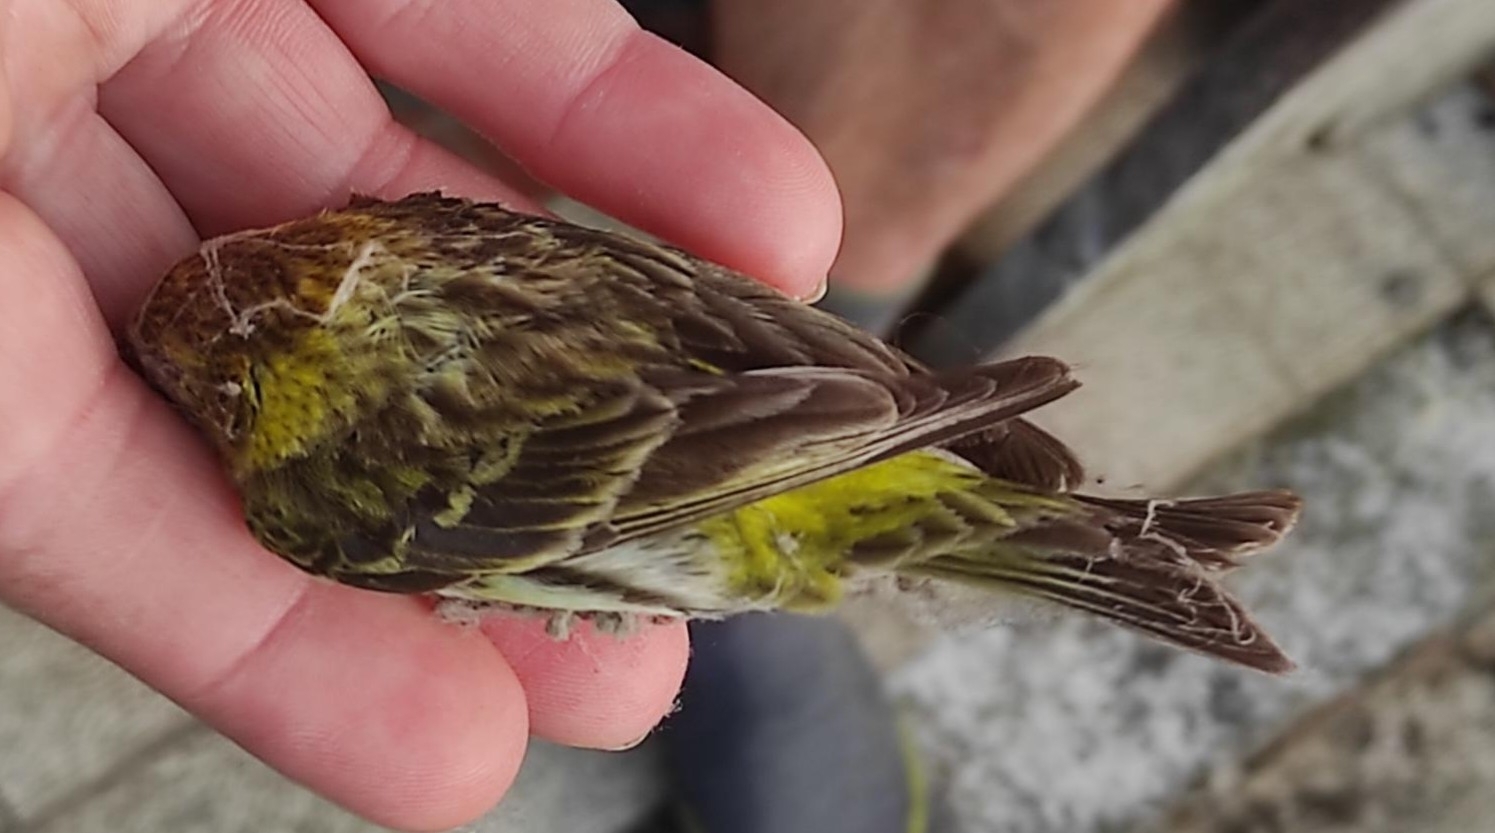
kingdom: Animalia
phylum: Chordata
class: Aves
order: Passeriformes
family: Fringillidae
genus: Serinus
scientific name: Serinus serinus
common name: European serin
